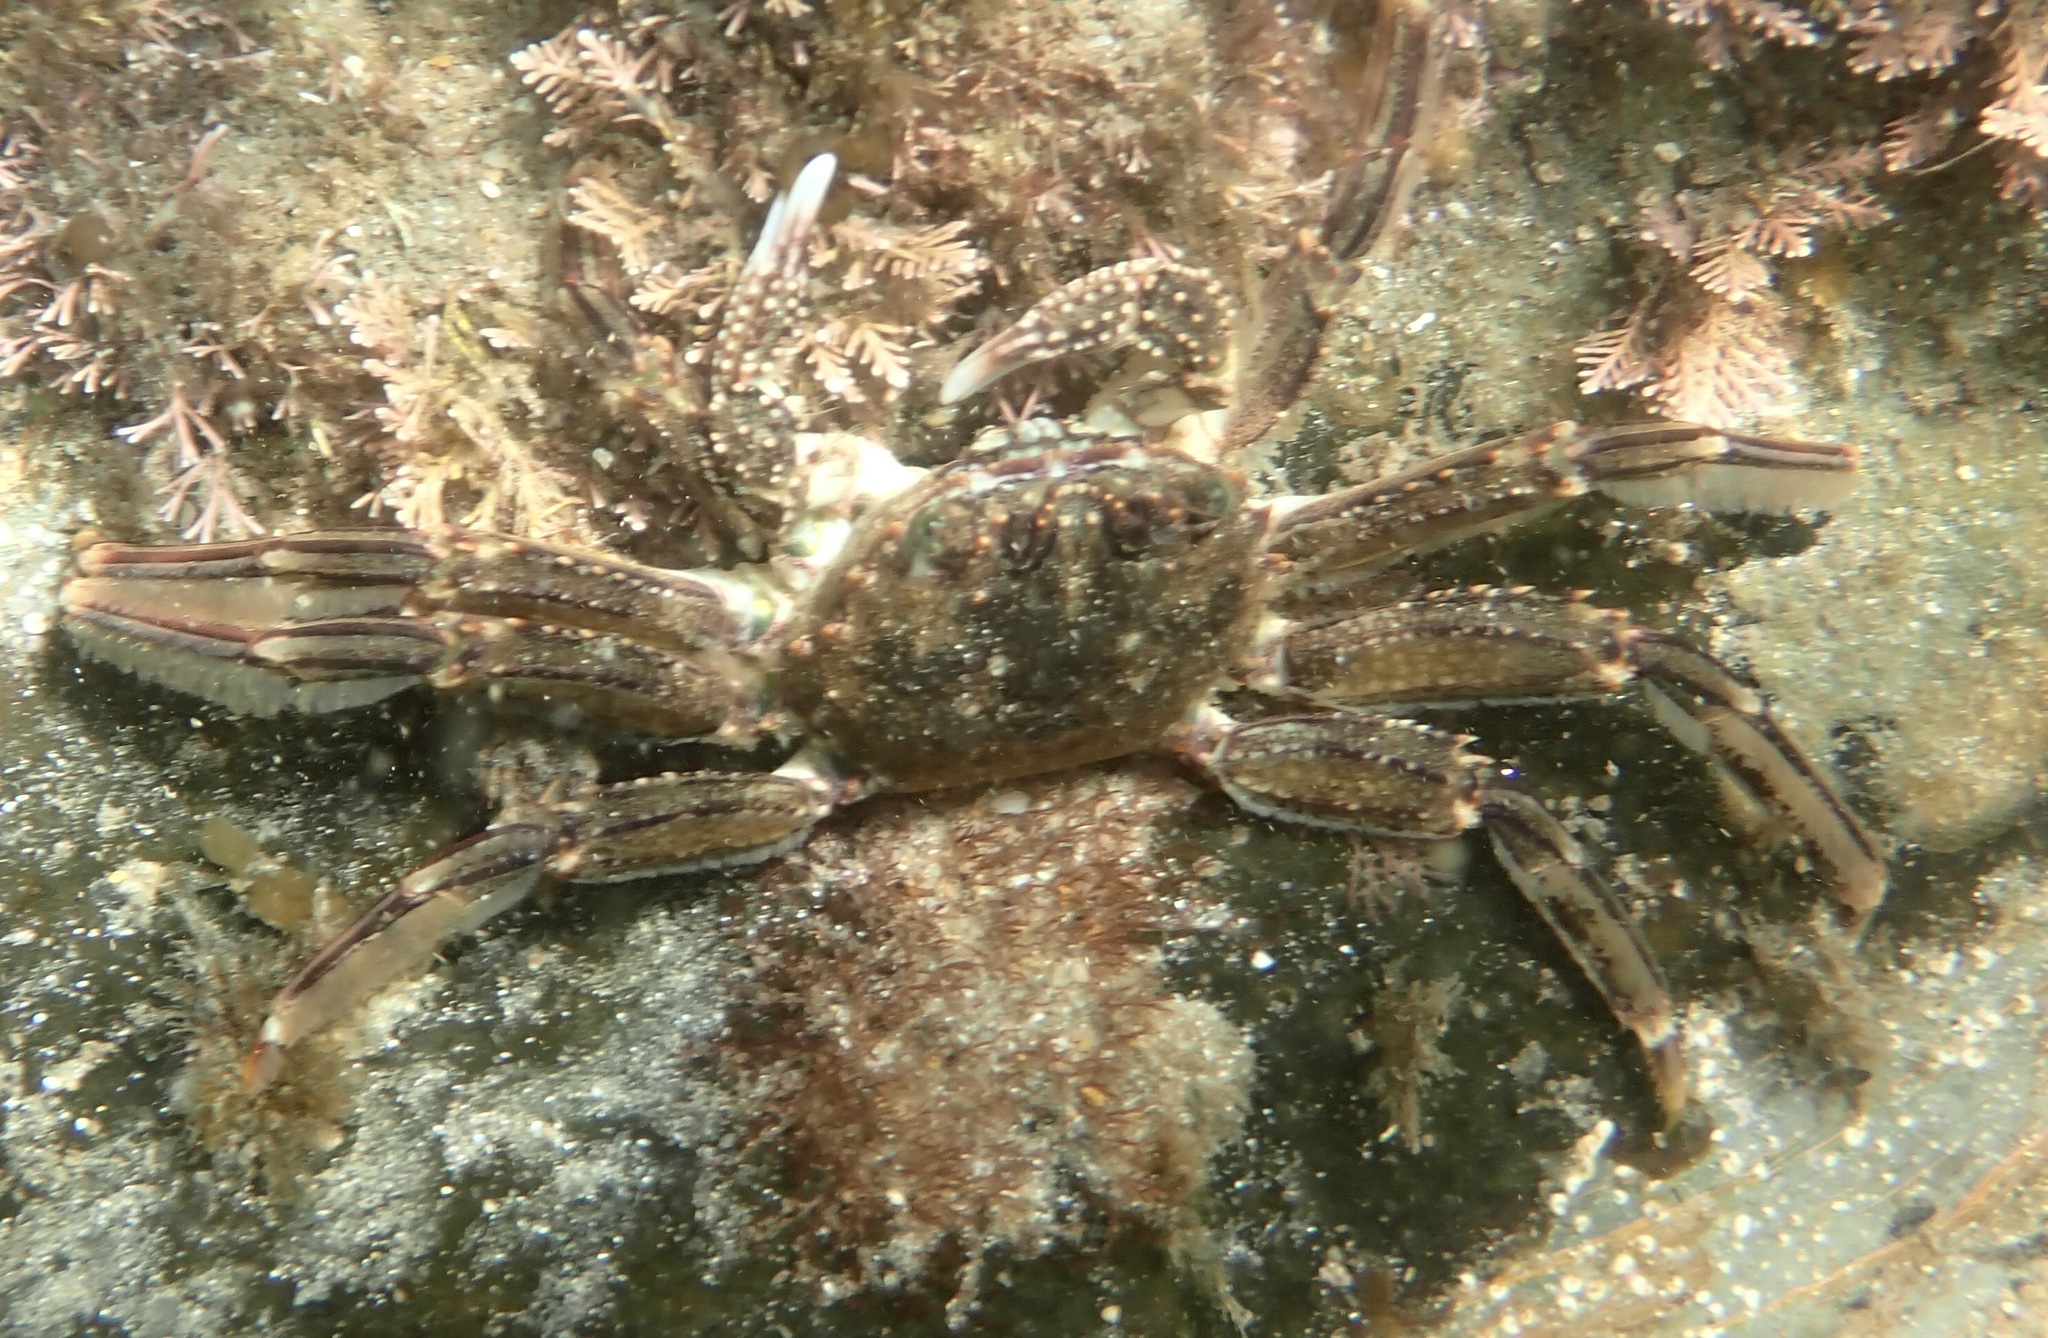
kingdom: Animalia
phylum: Arthropoda
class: Malacostraca
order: Decapoda
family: Plagusiidae
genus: Guinusia
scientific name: Guinusia chabrus
